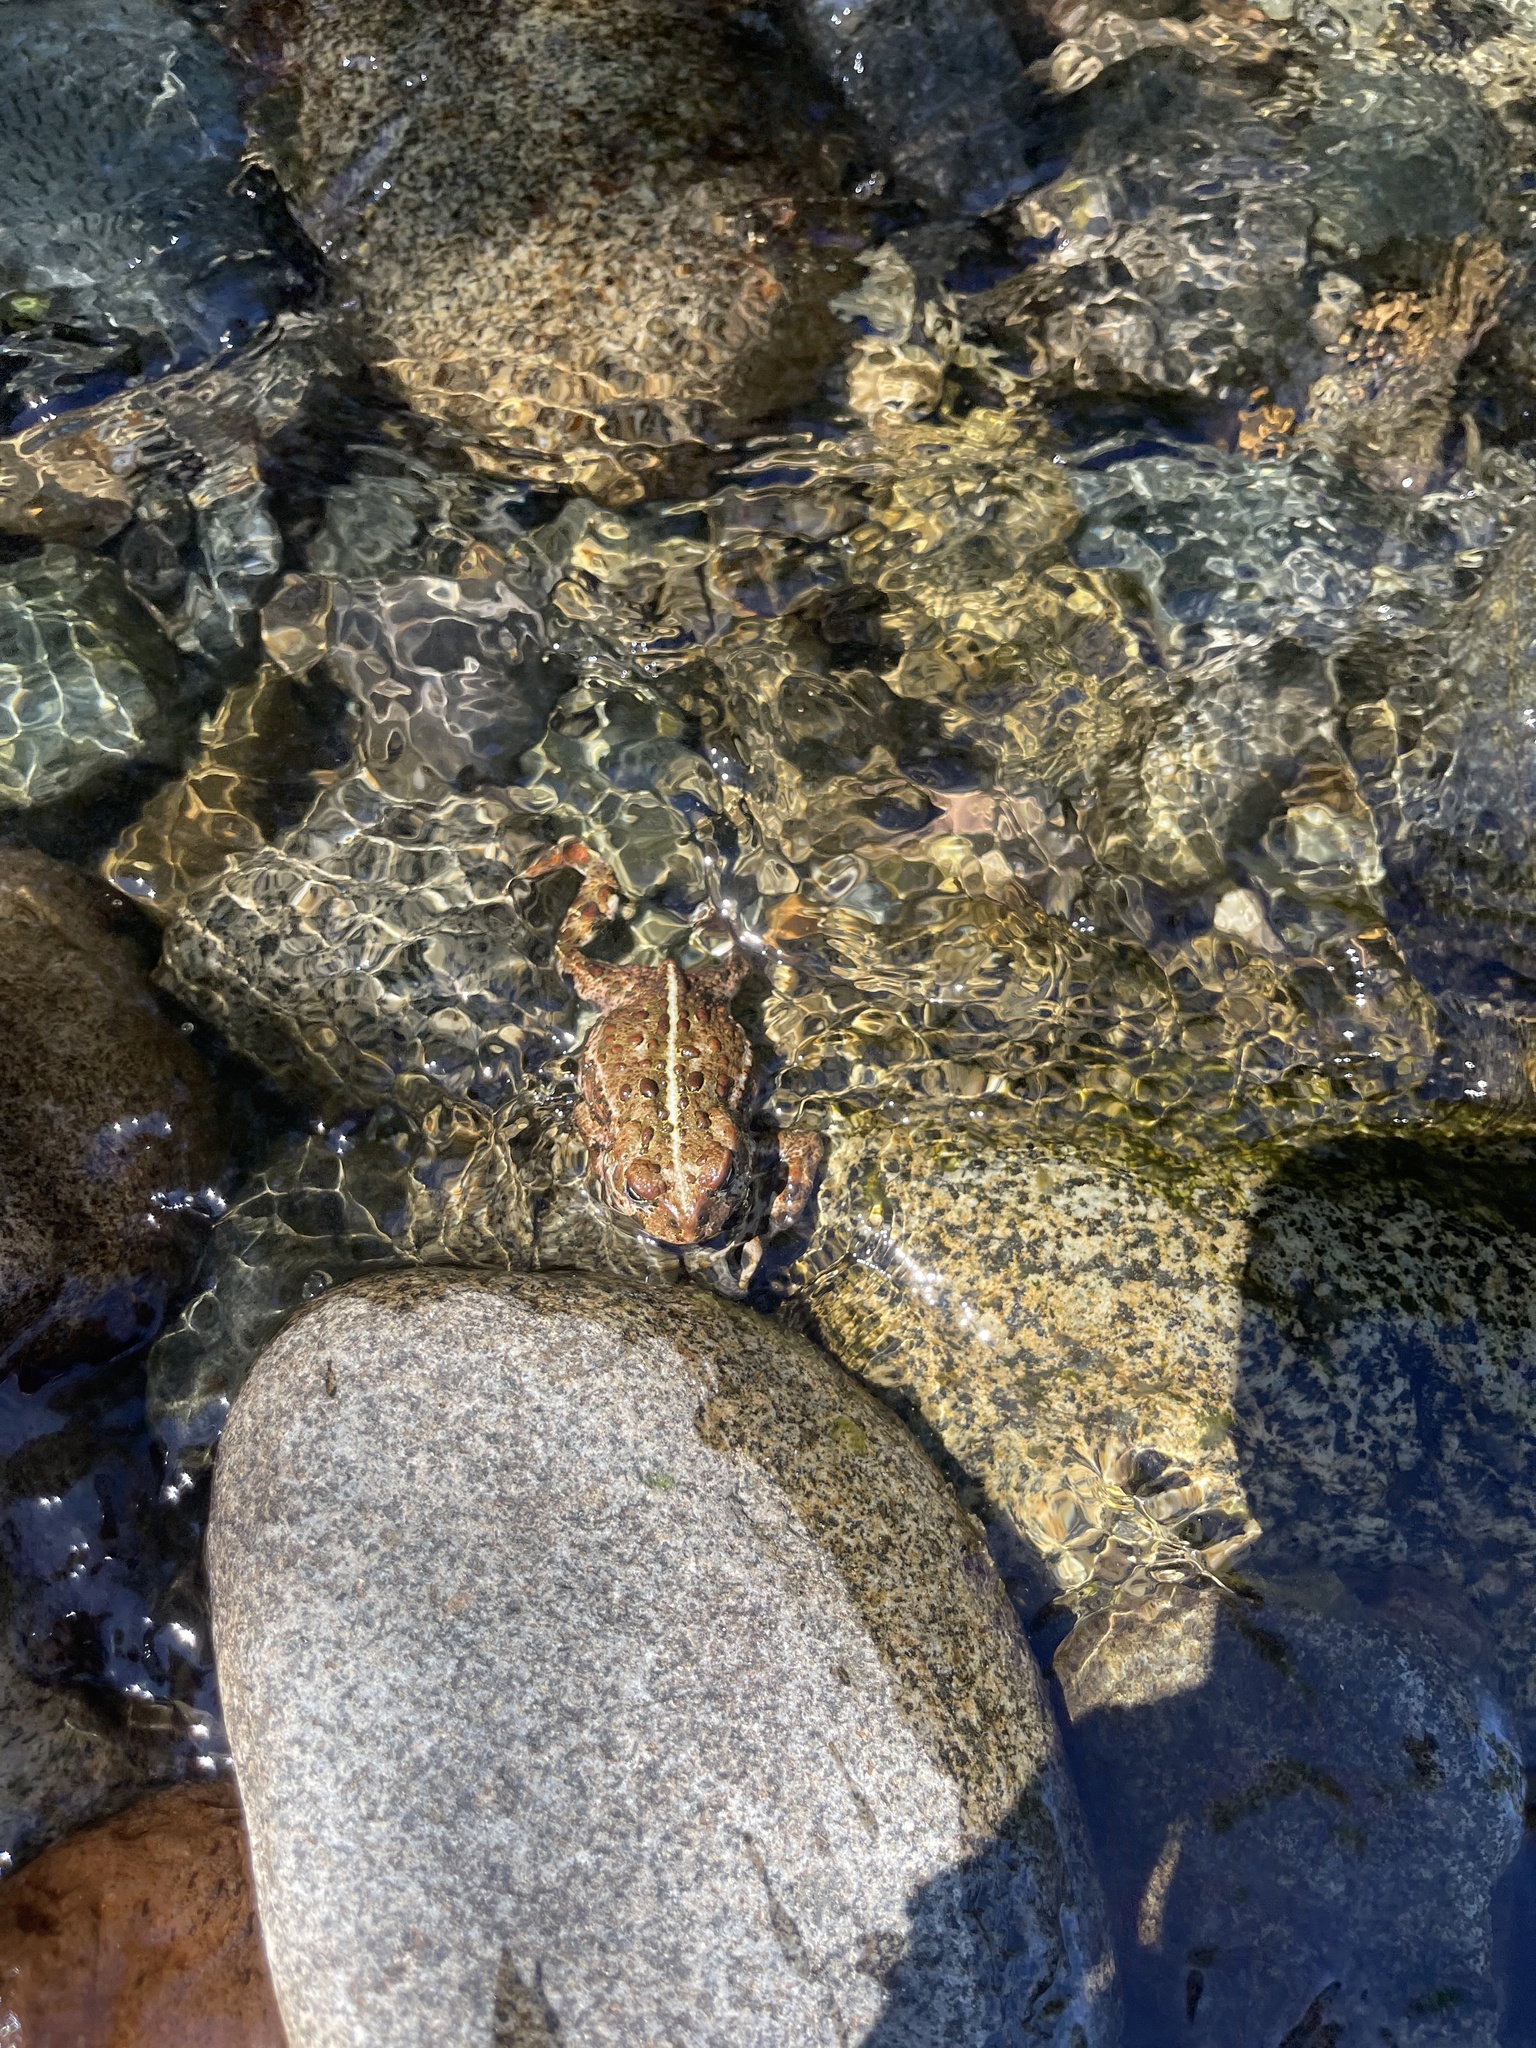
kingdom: Animalia
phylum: Chordata
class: Amphibia
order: Anura
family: Bufonidae
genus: Anaxyrus
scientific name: Anaxyrus boreas
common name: Western toad
